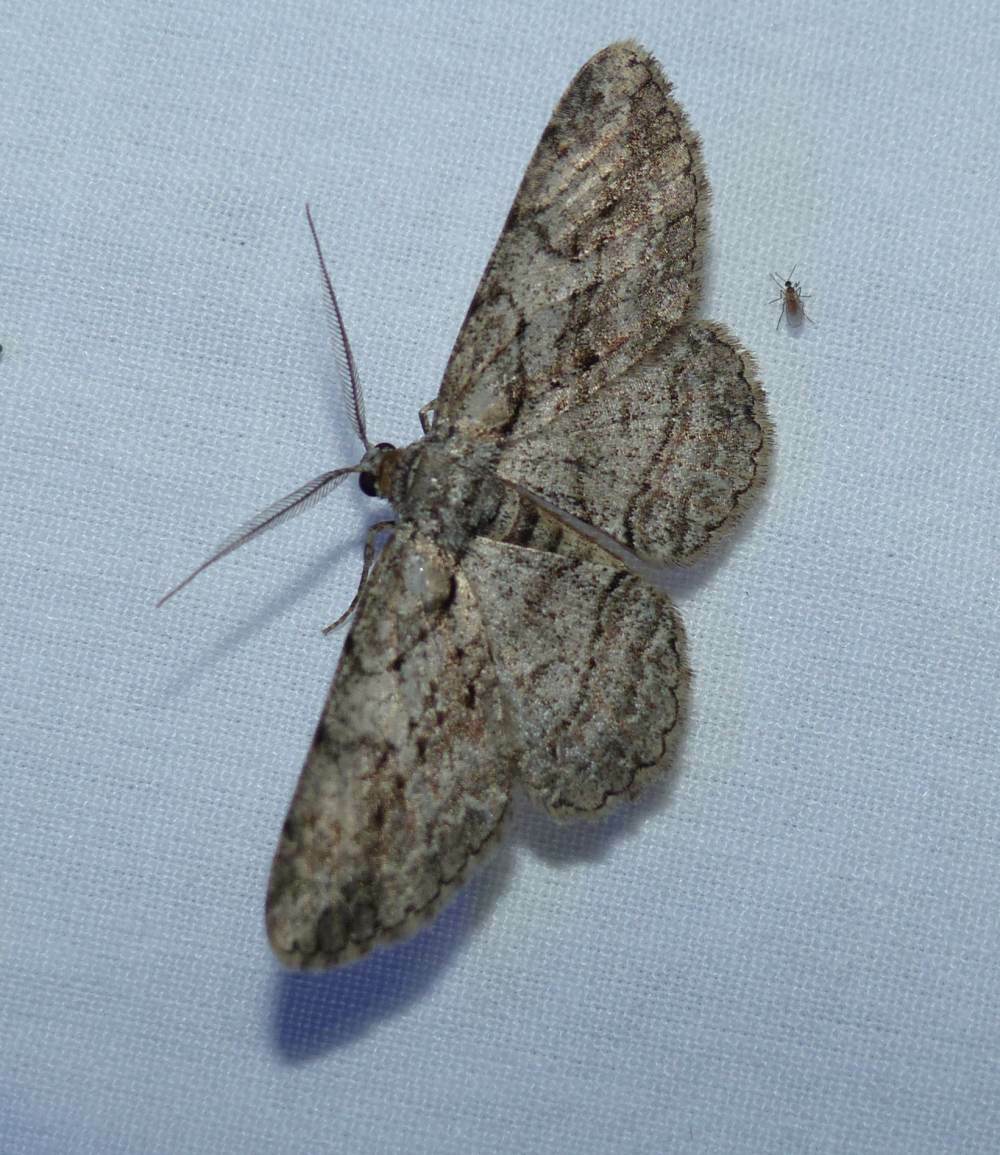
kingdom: Animalia
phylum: Arthropoda
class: Insecta
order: Lepidoptera
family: Geometridae
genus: Anavitrinella
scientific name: Anavitrinella pampinaria
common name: Common gray
